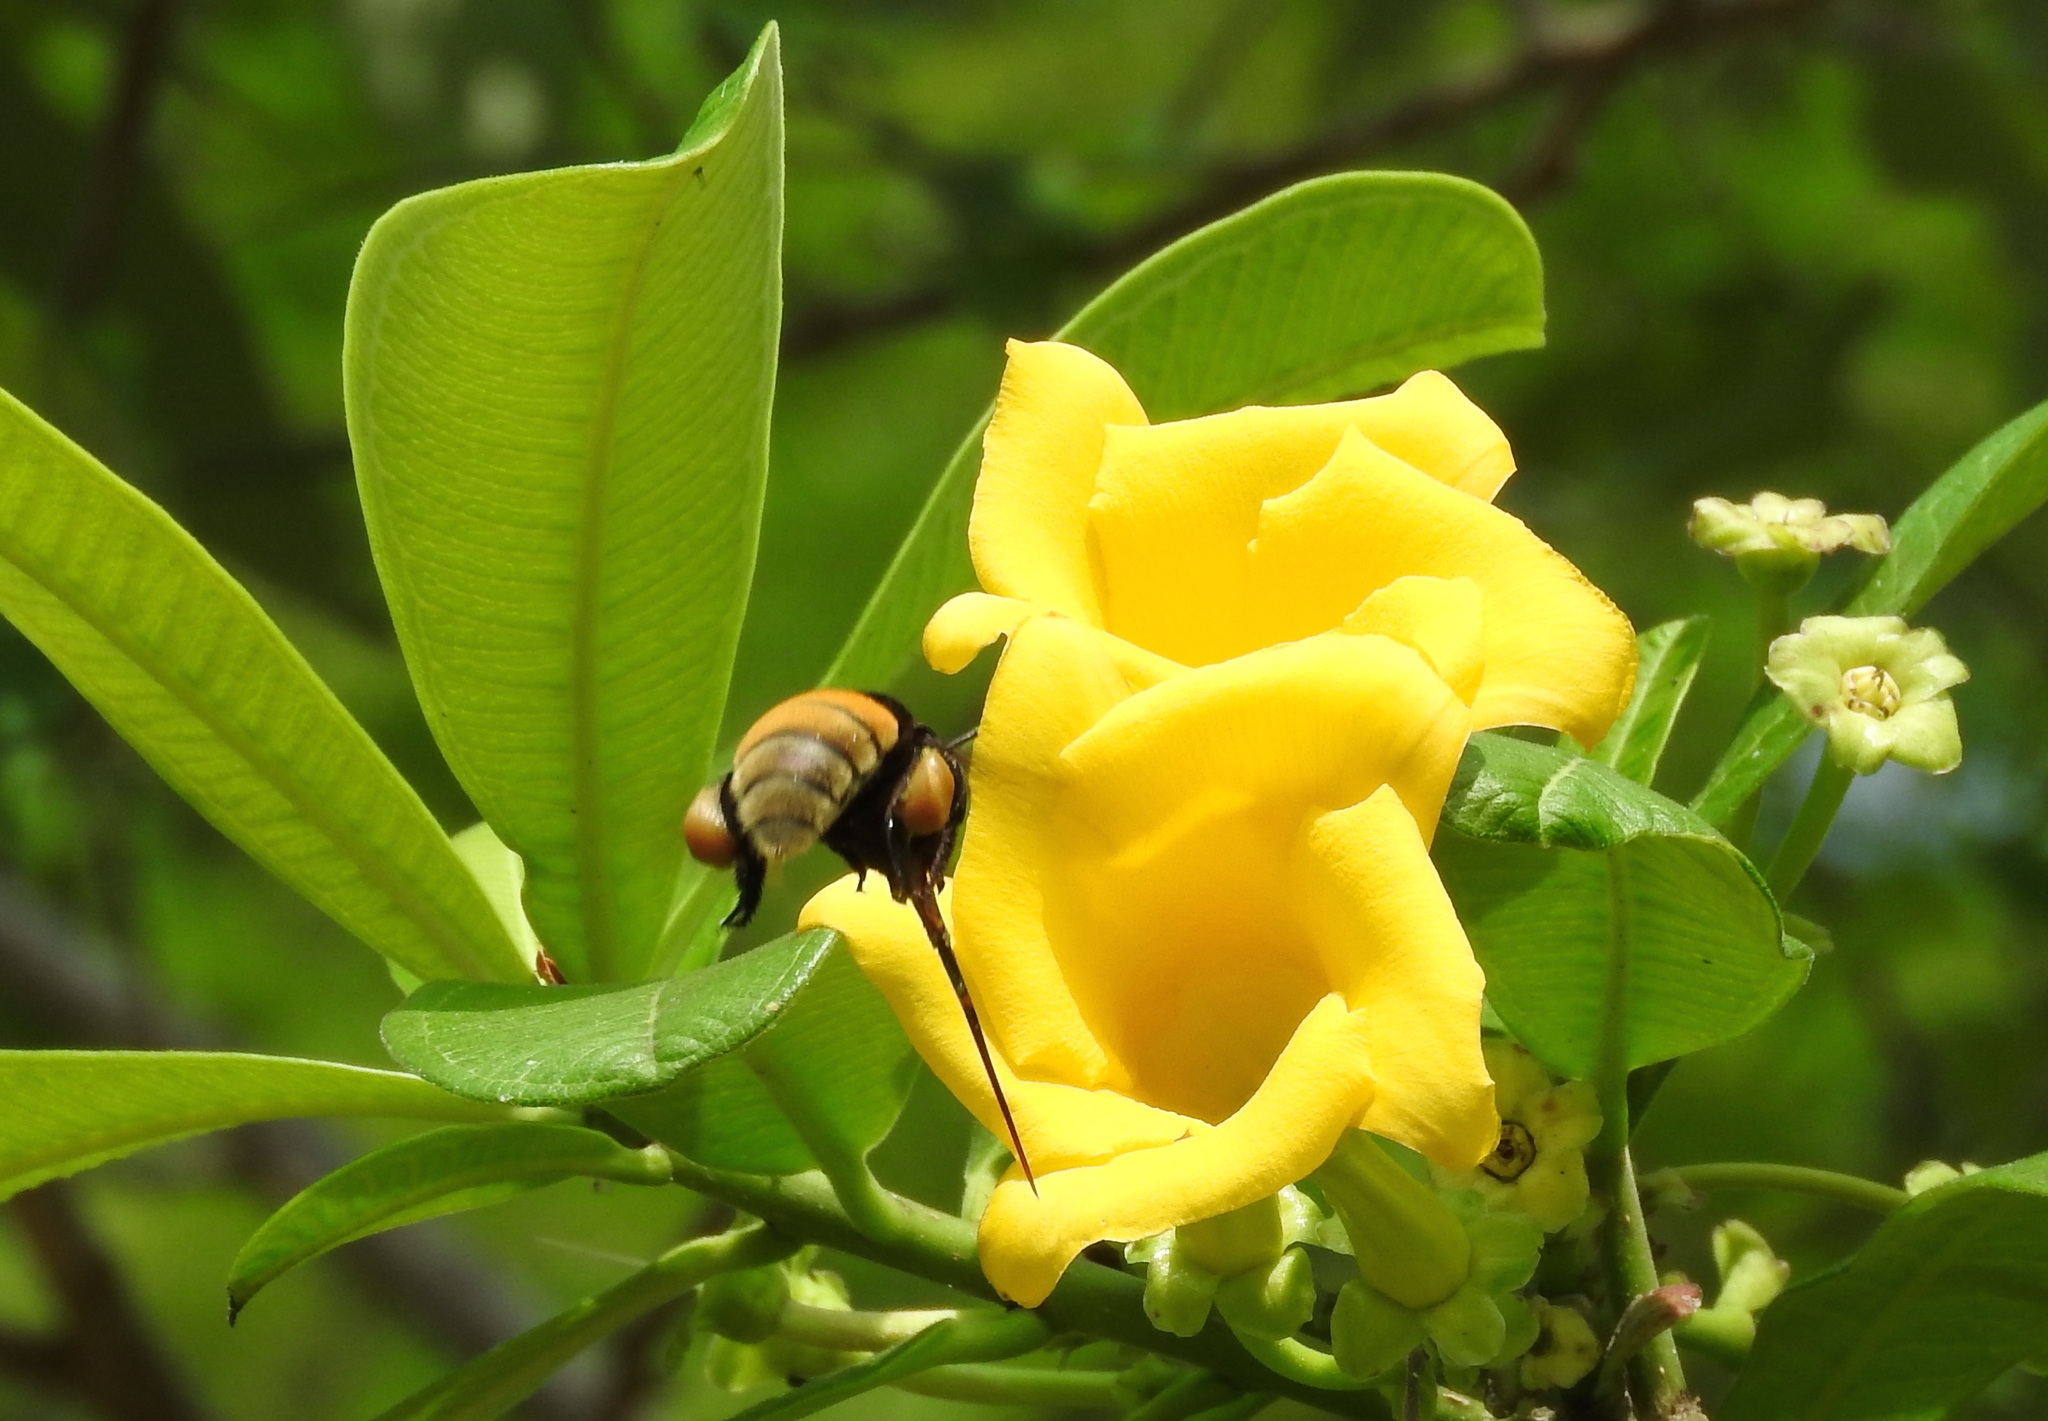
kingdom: Animalia
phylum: Arthropoda
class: Insecta
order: Hymenoptera
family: Apidae
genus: Eulaema
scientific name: Eulaema polychroma
